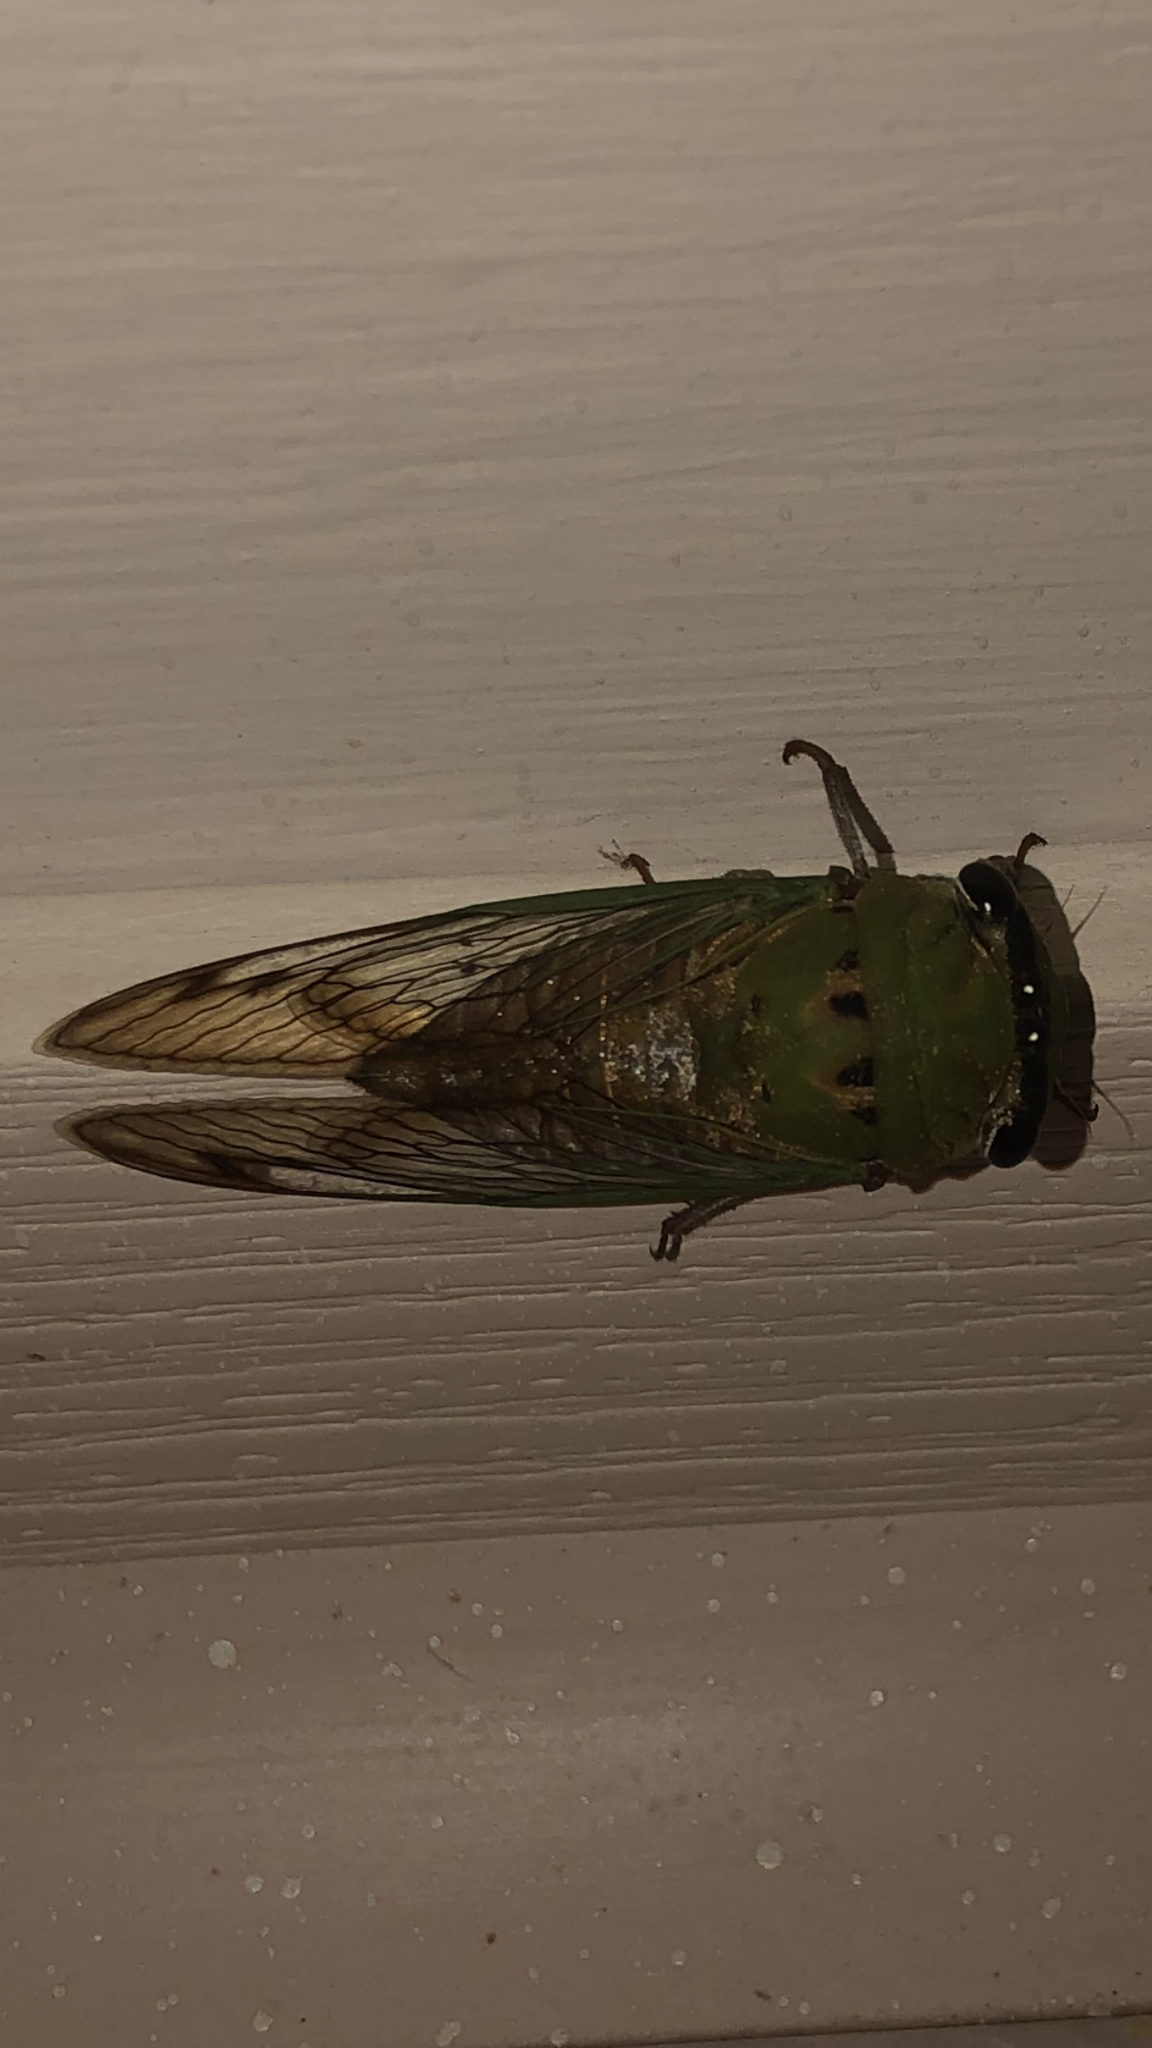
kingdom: Animalia
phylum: Arthropoda
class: Insecta
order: Hemiptera
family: Cicadidae
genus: Neotibicen
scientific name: Neotibicen superbus
